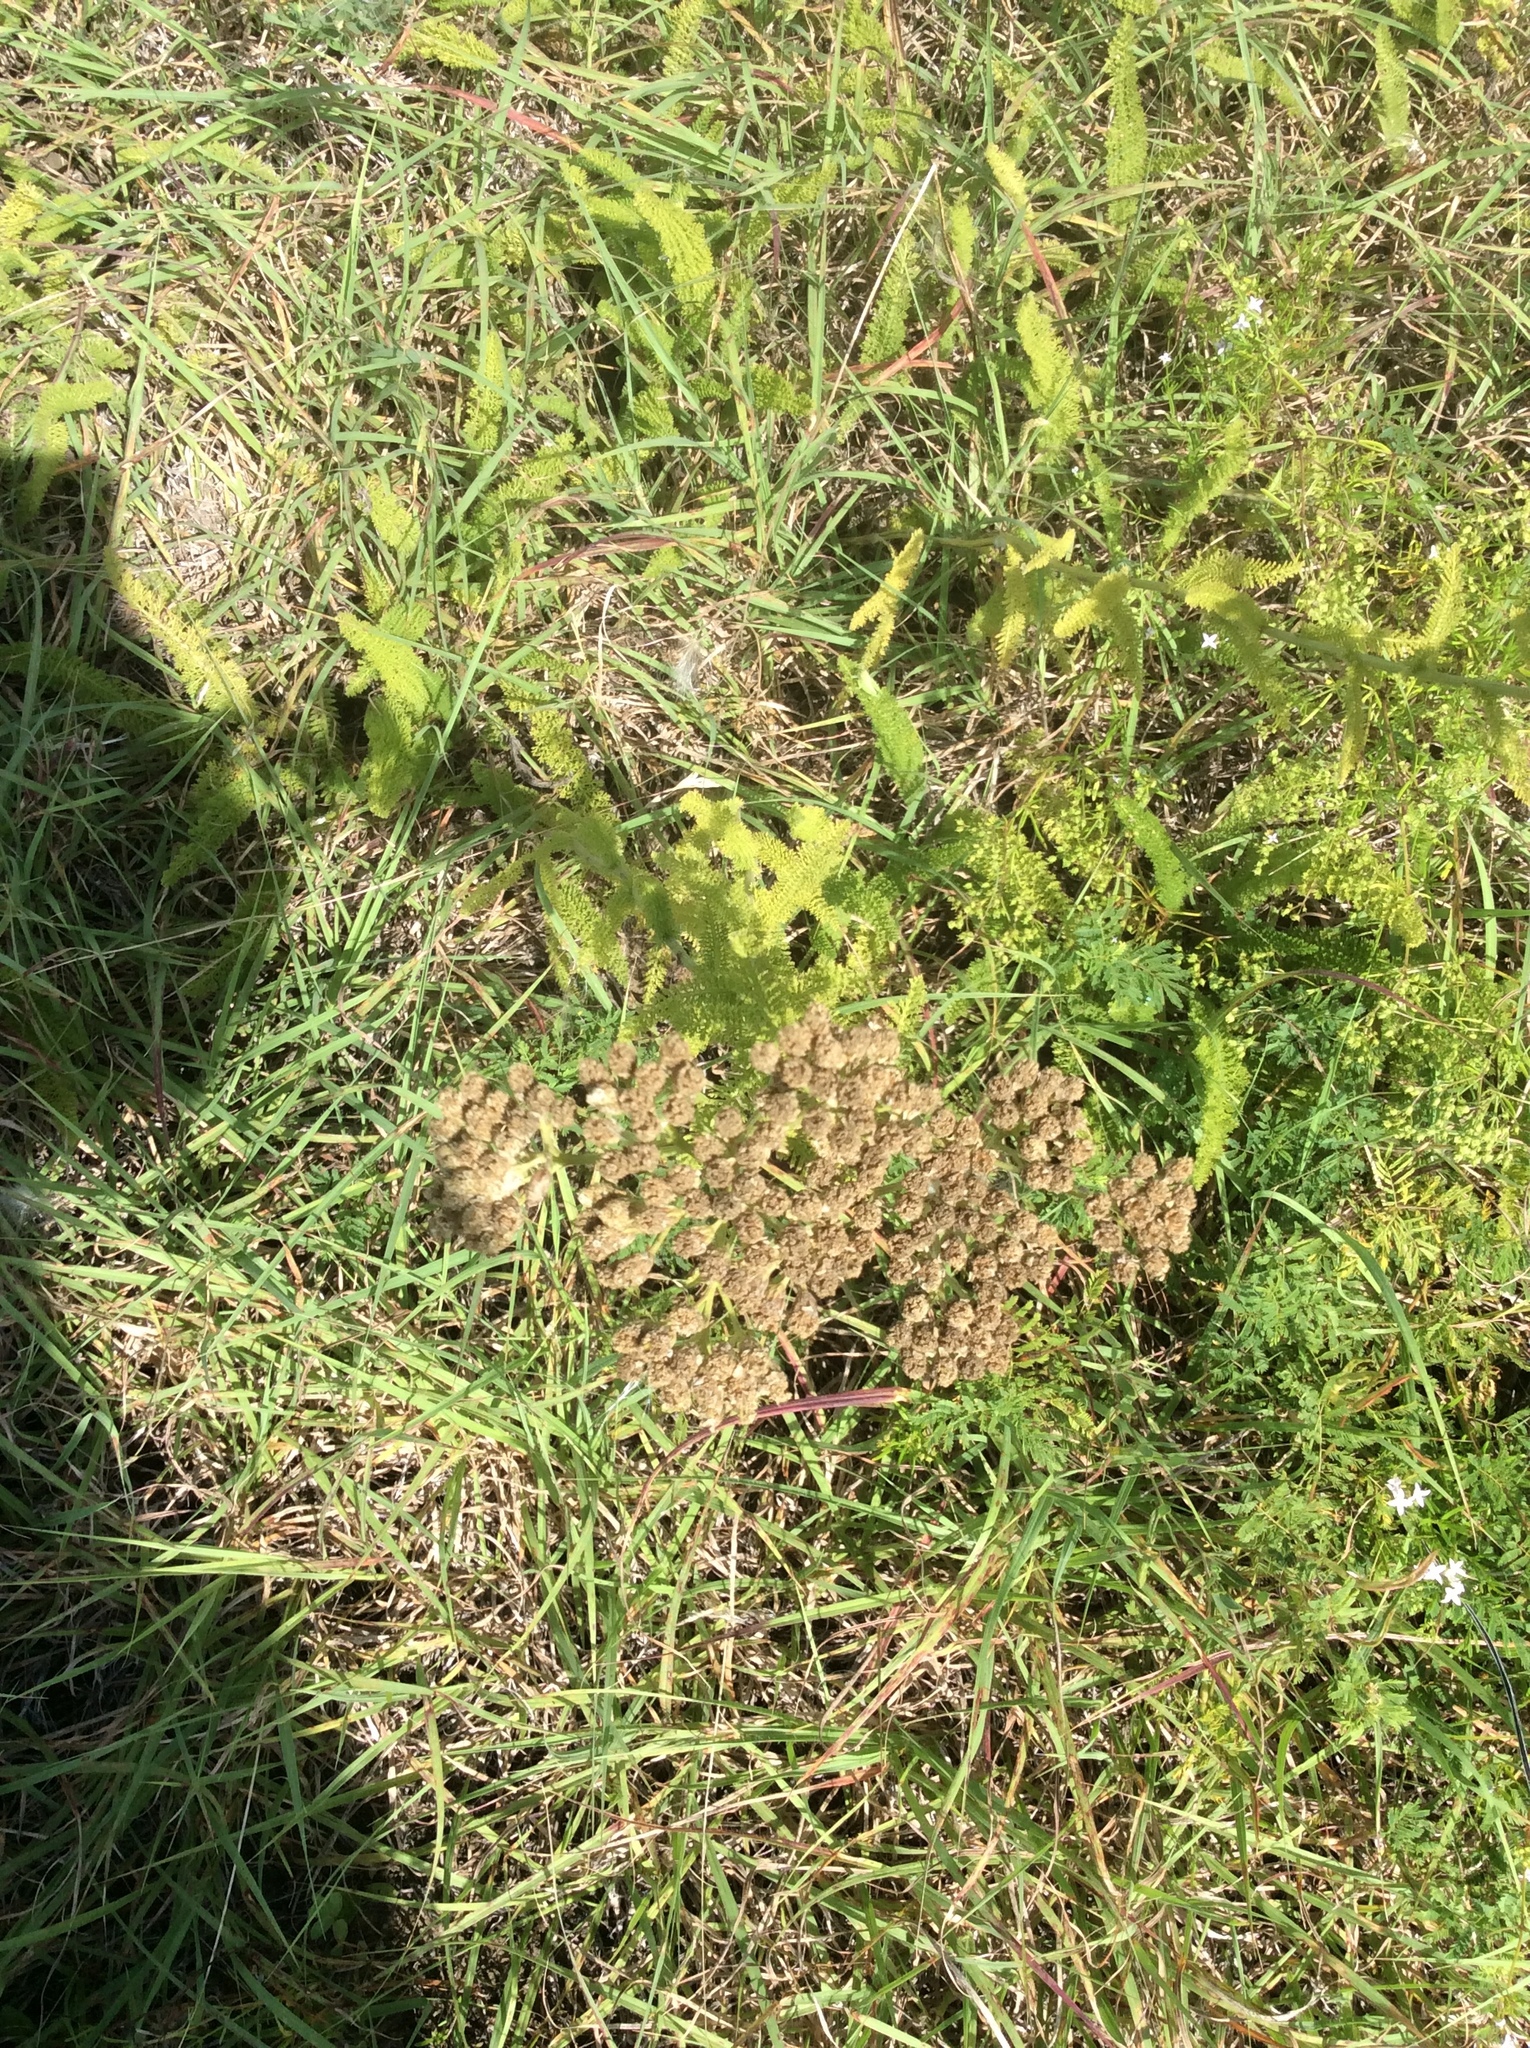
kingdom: Plantae
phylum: Tracheophyta
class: Magnoliopsida
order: Asterales
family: Asteraceae
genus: Achillea
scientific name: Achillea millefolium
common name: Yarrow
